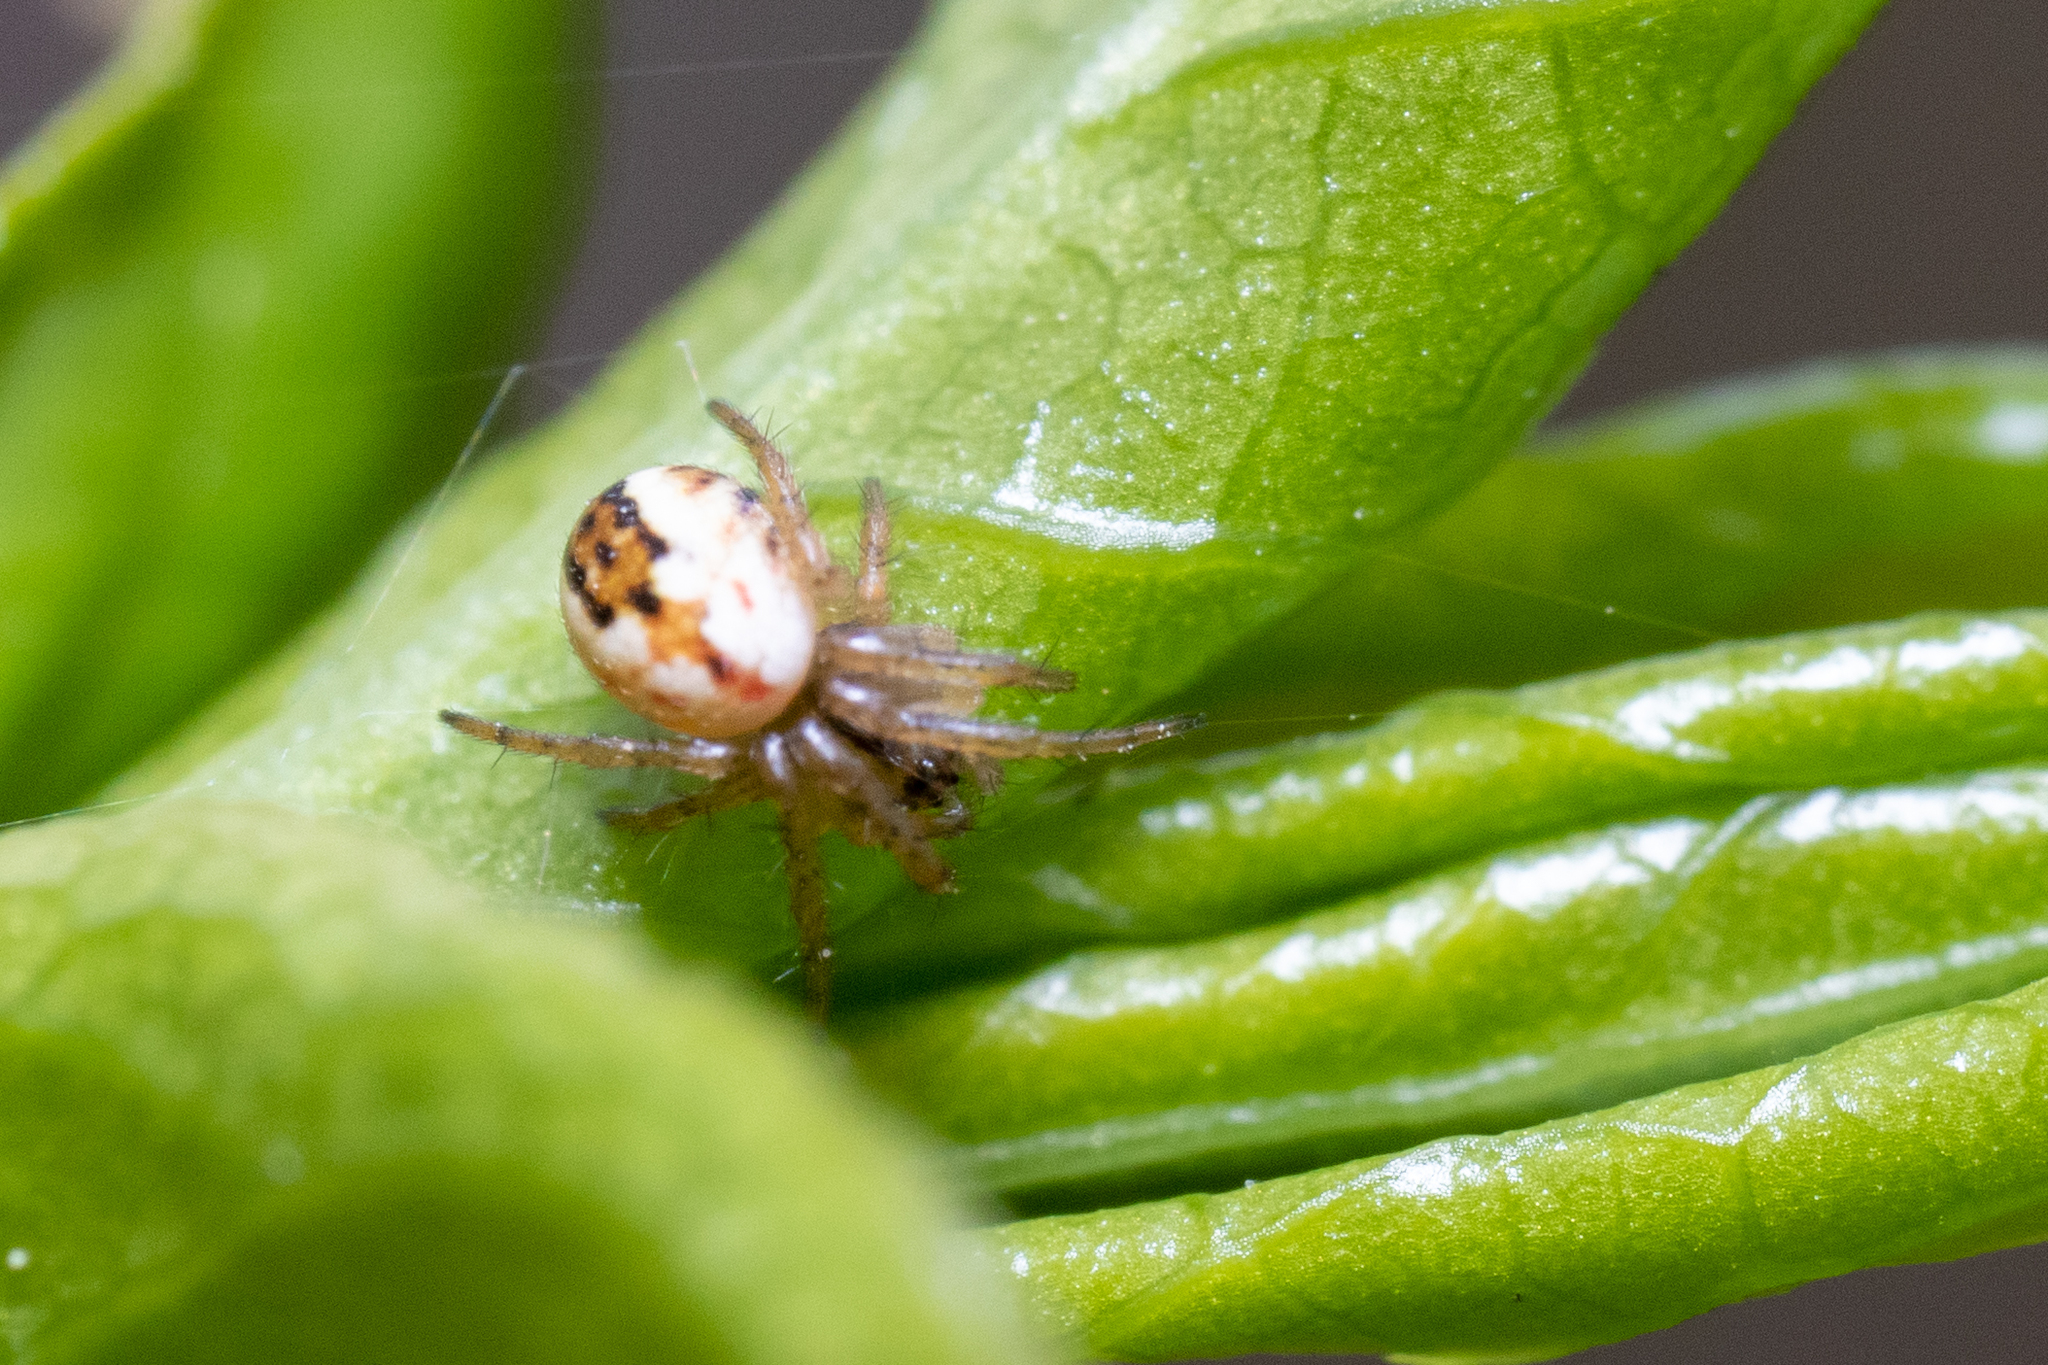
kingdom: Animalia
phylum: Arthropoda
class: Arachnida
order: Araneae
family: Araneidae
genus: Mangora
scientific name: Mangora acalypha
